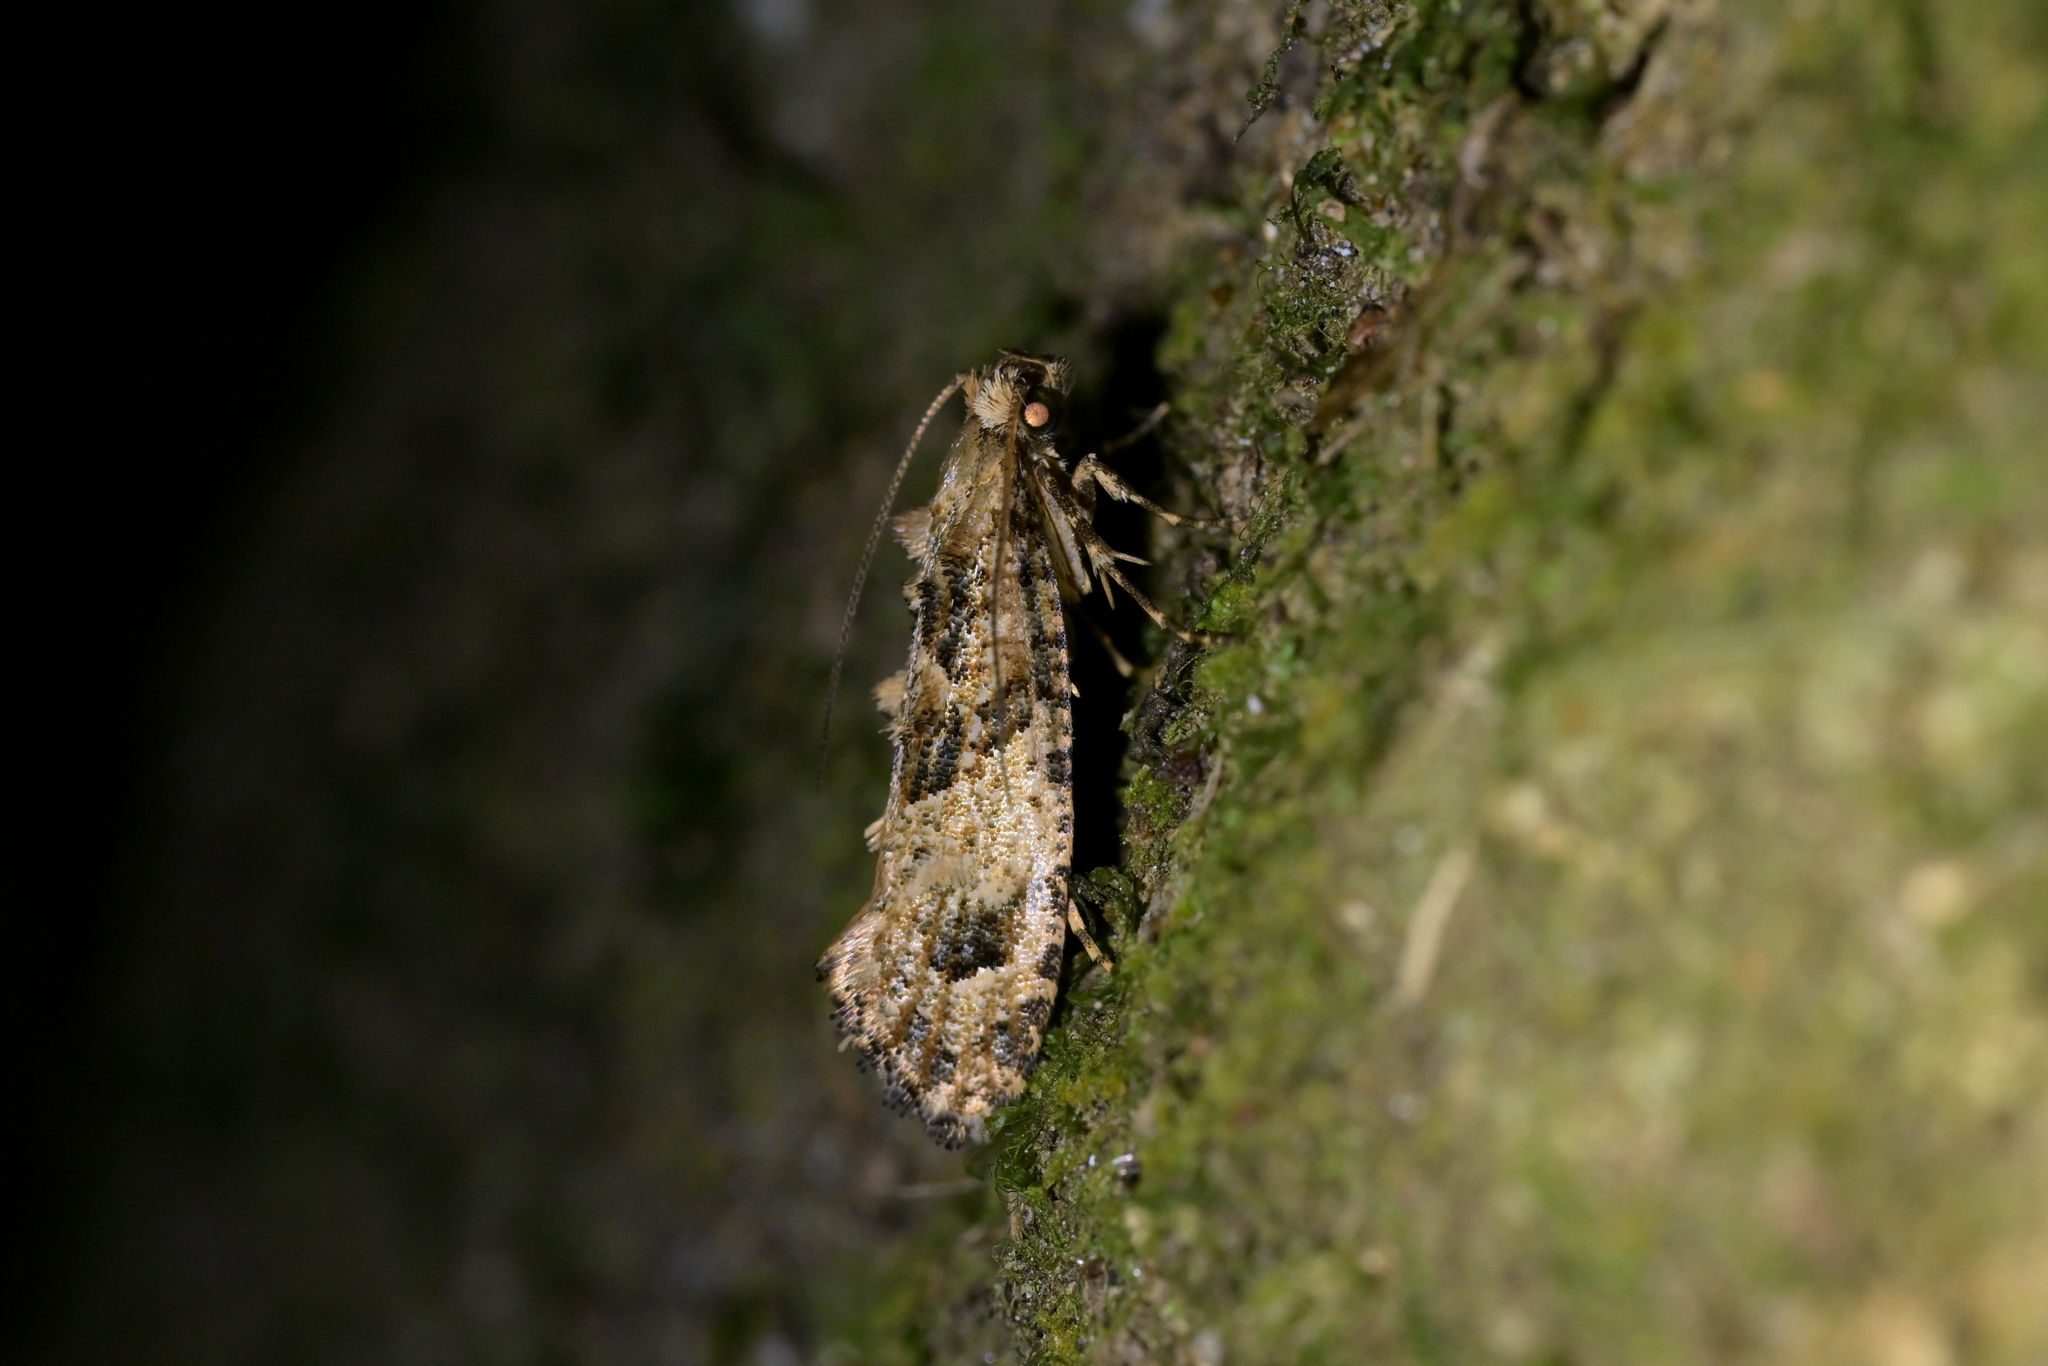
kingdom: Animalia
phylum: Arthropoda
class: Insecta
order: Lepidoptera
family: Tineidae
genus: Lysiphragma
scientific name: Lysiphragma epixyla
